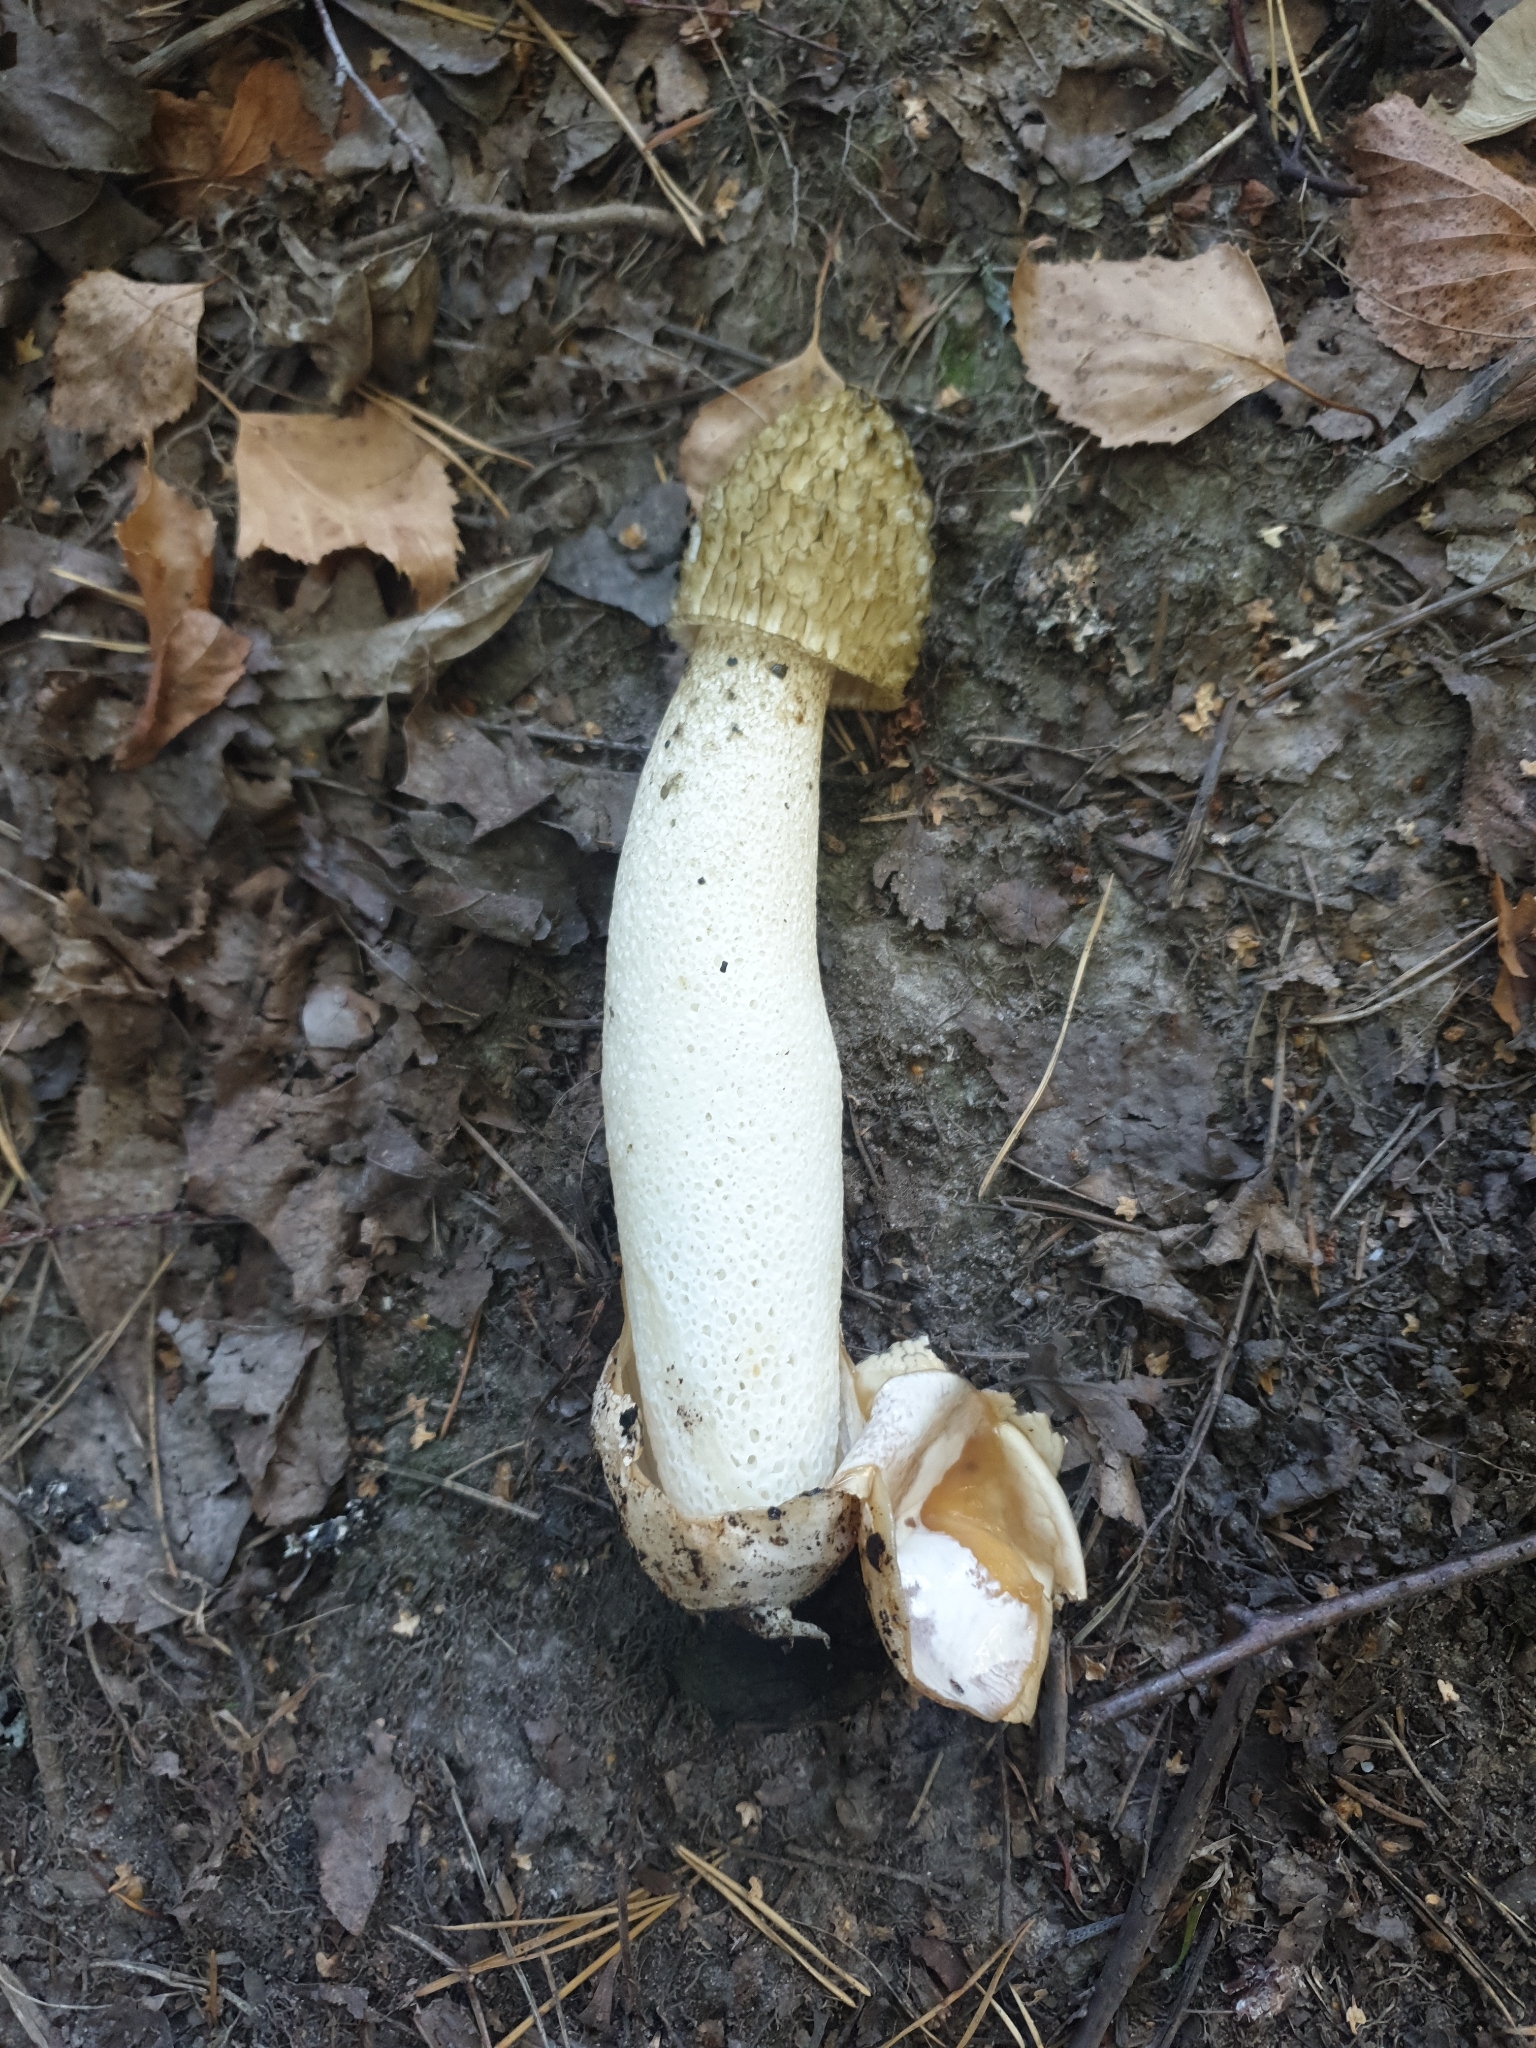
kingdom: Fungi
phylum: Basidiomycota
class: Agaricomycetes
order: Phallales
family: Phallaceae
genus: Phallus
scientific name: Phallus impudicus
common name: Common stinkhorn
